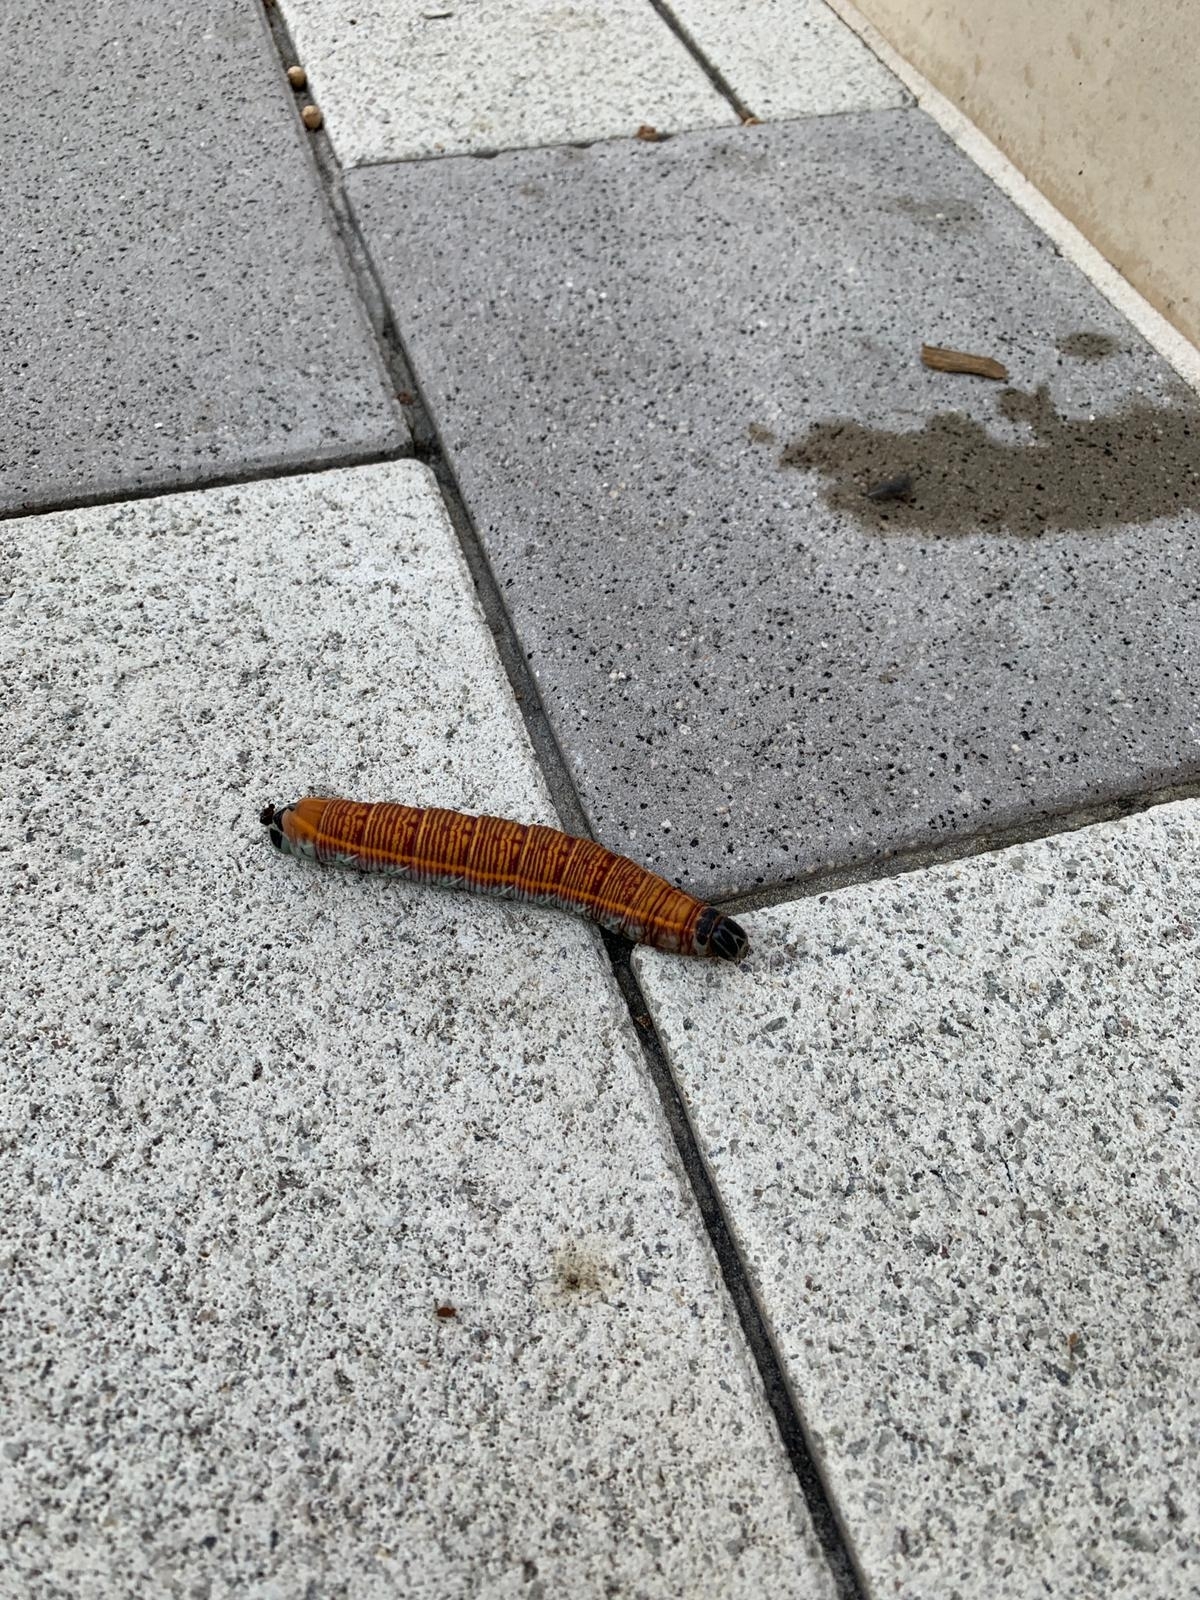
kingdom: Animalia
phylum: Arthropoda
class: Insecta
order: Lepidoptera
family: Sphingidae
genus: Pachylia
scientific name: Pachylia ficus
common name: Fig sphinx
